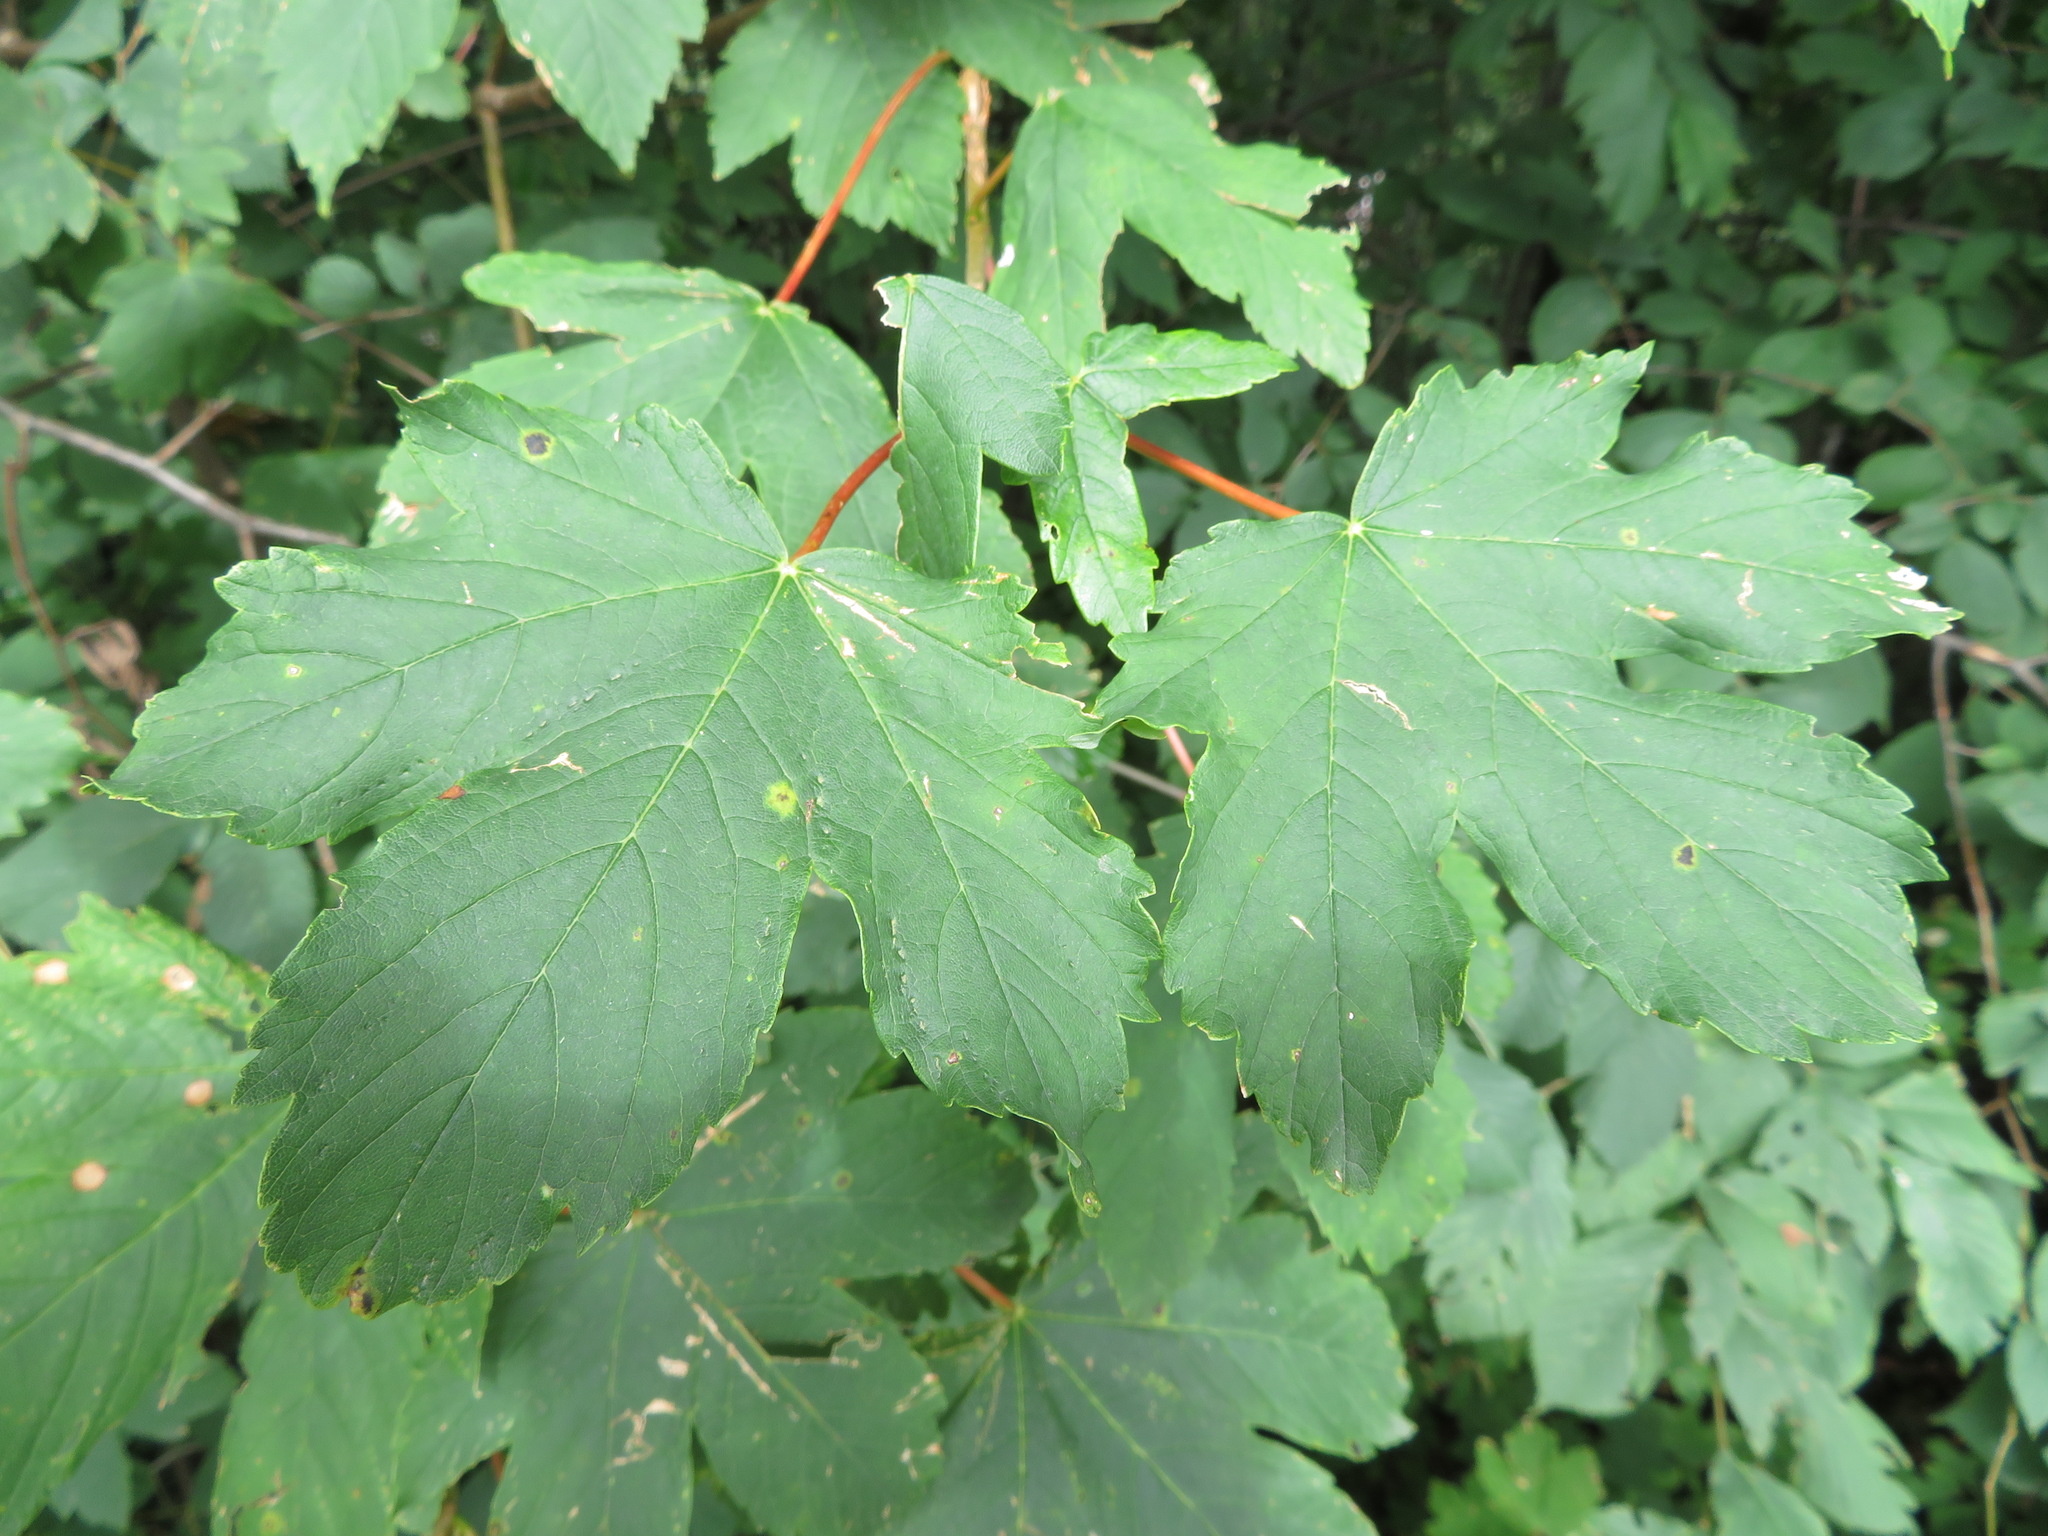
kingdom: Plantae
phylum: Tracheophyta
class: Magnoliopsida
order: Sapindales
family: Sapindaceae
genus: Acer
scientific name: Acer pseudoplatanus
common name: Sycamore
